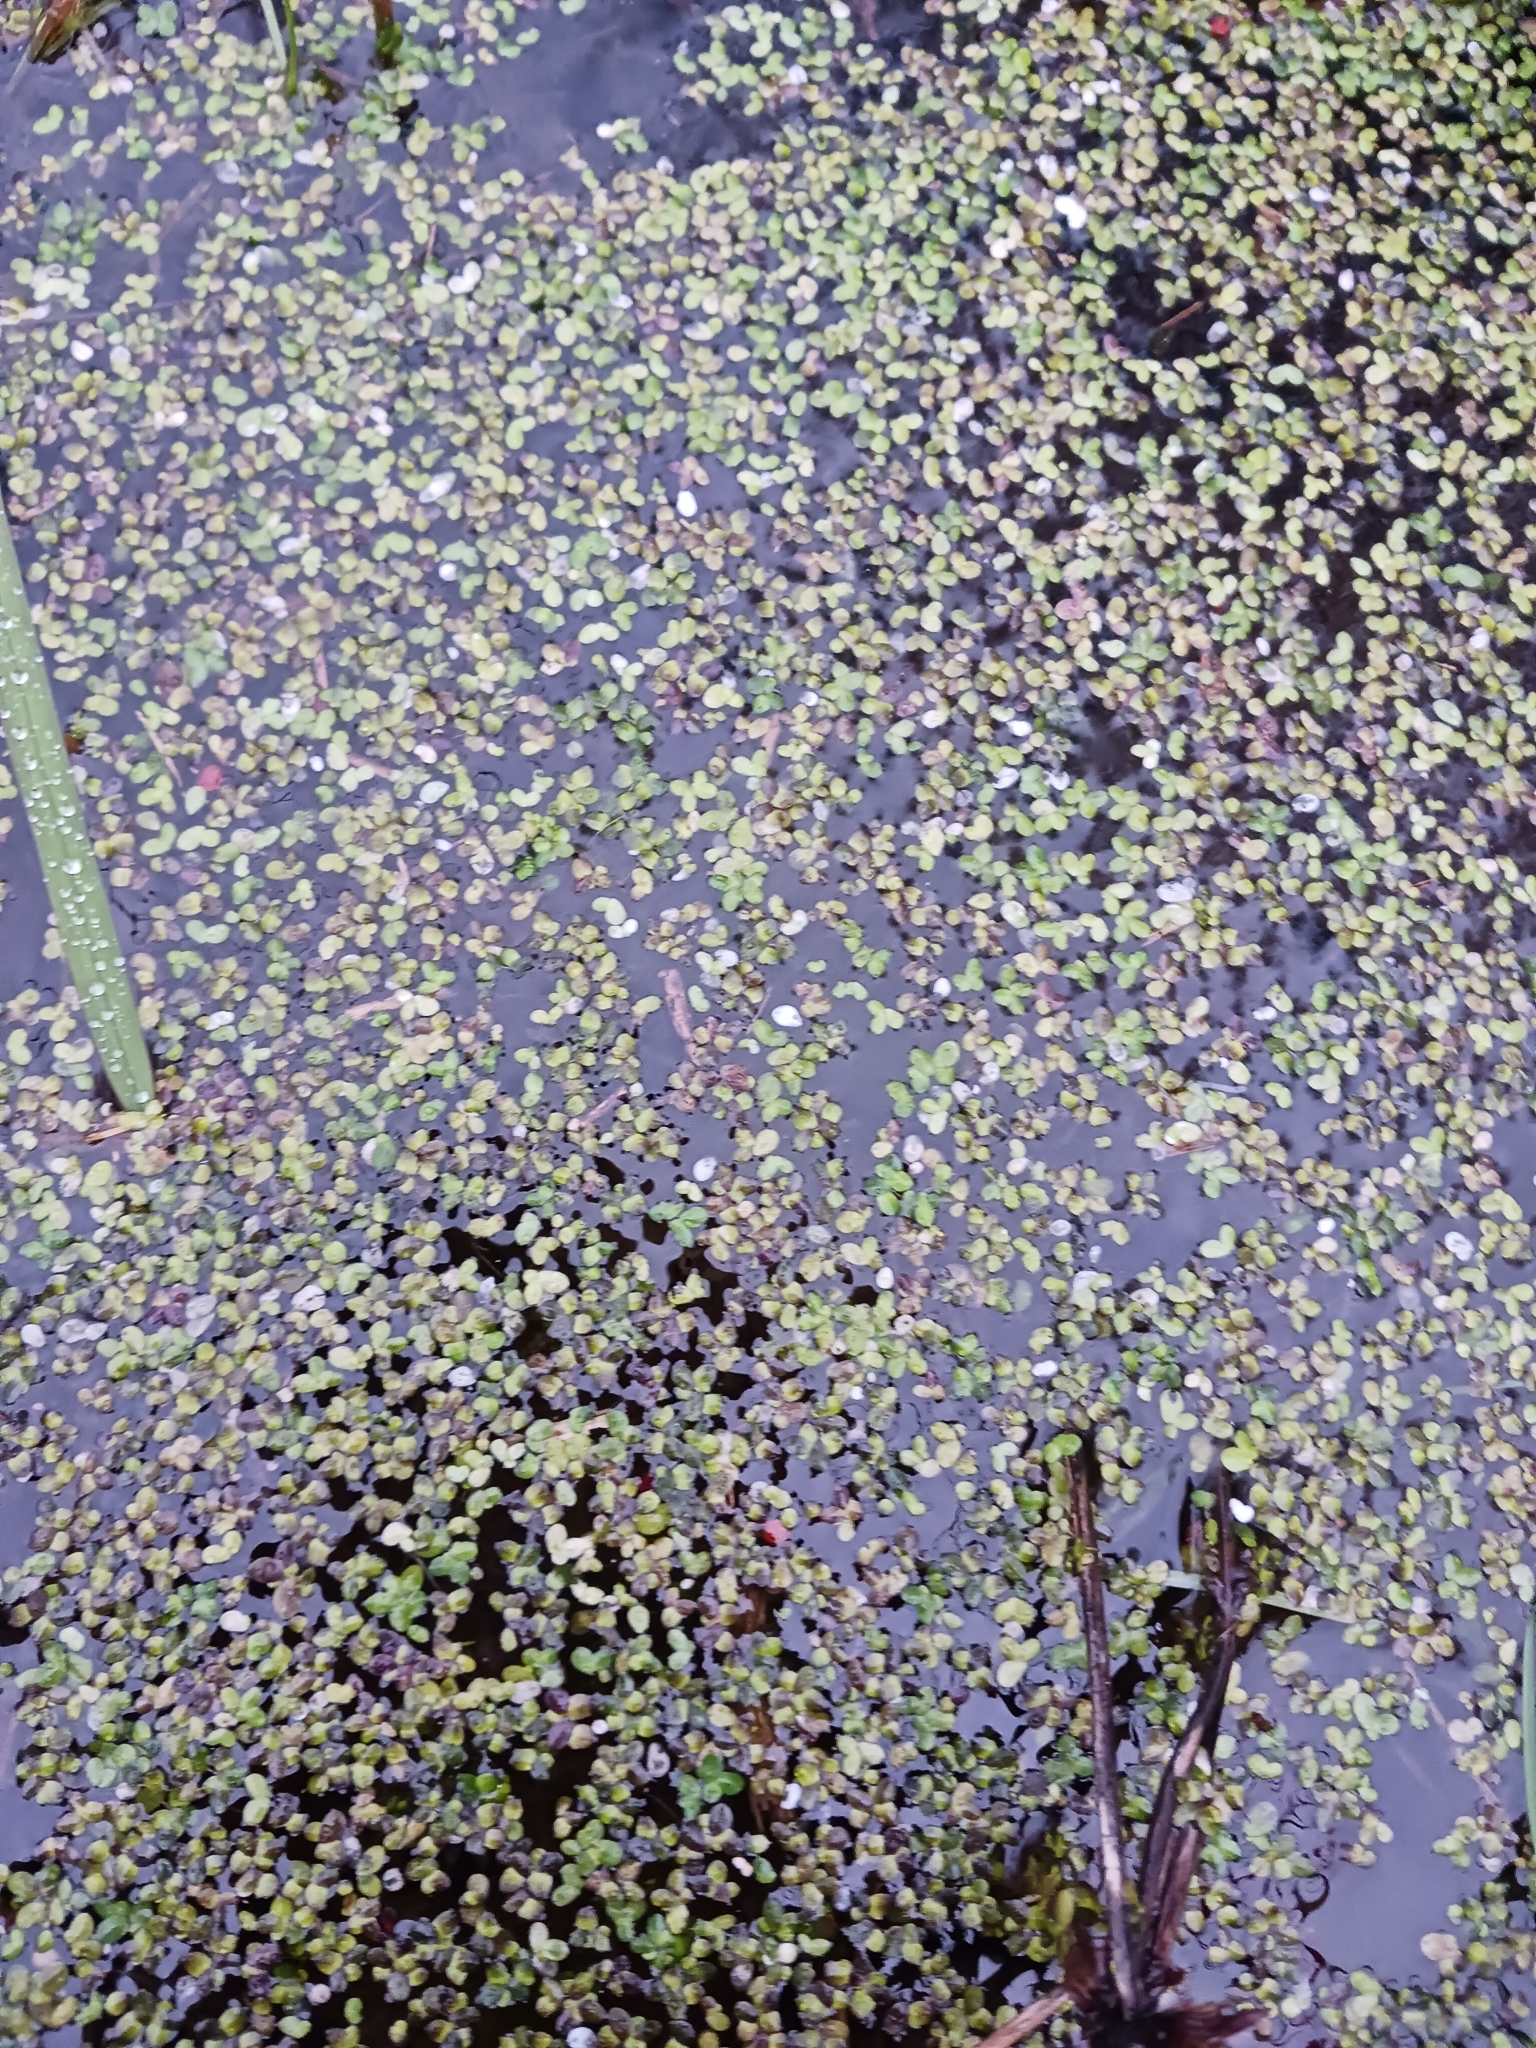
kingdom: Plantae
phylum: Tracheophyta
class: Liliopsida
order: Alismatales
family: Araceae
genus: Lemna
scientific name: Lemna minor
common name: Common duckweed
